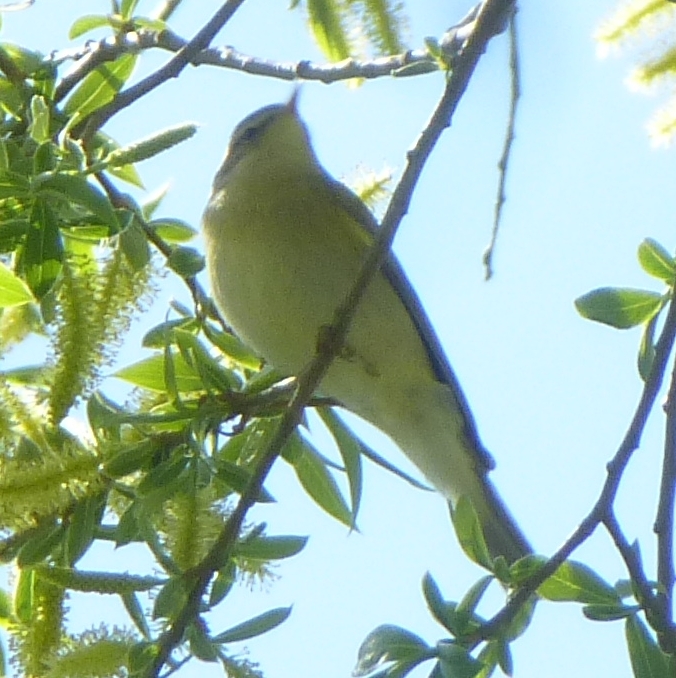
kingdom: Animalia
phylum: Chordata
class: Aves
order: Passeriformes
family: Phylloscopidae
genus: Phylloscopus
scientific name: Phylloscopus trochilus
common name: Willow warbler
